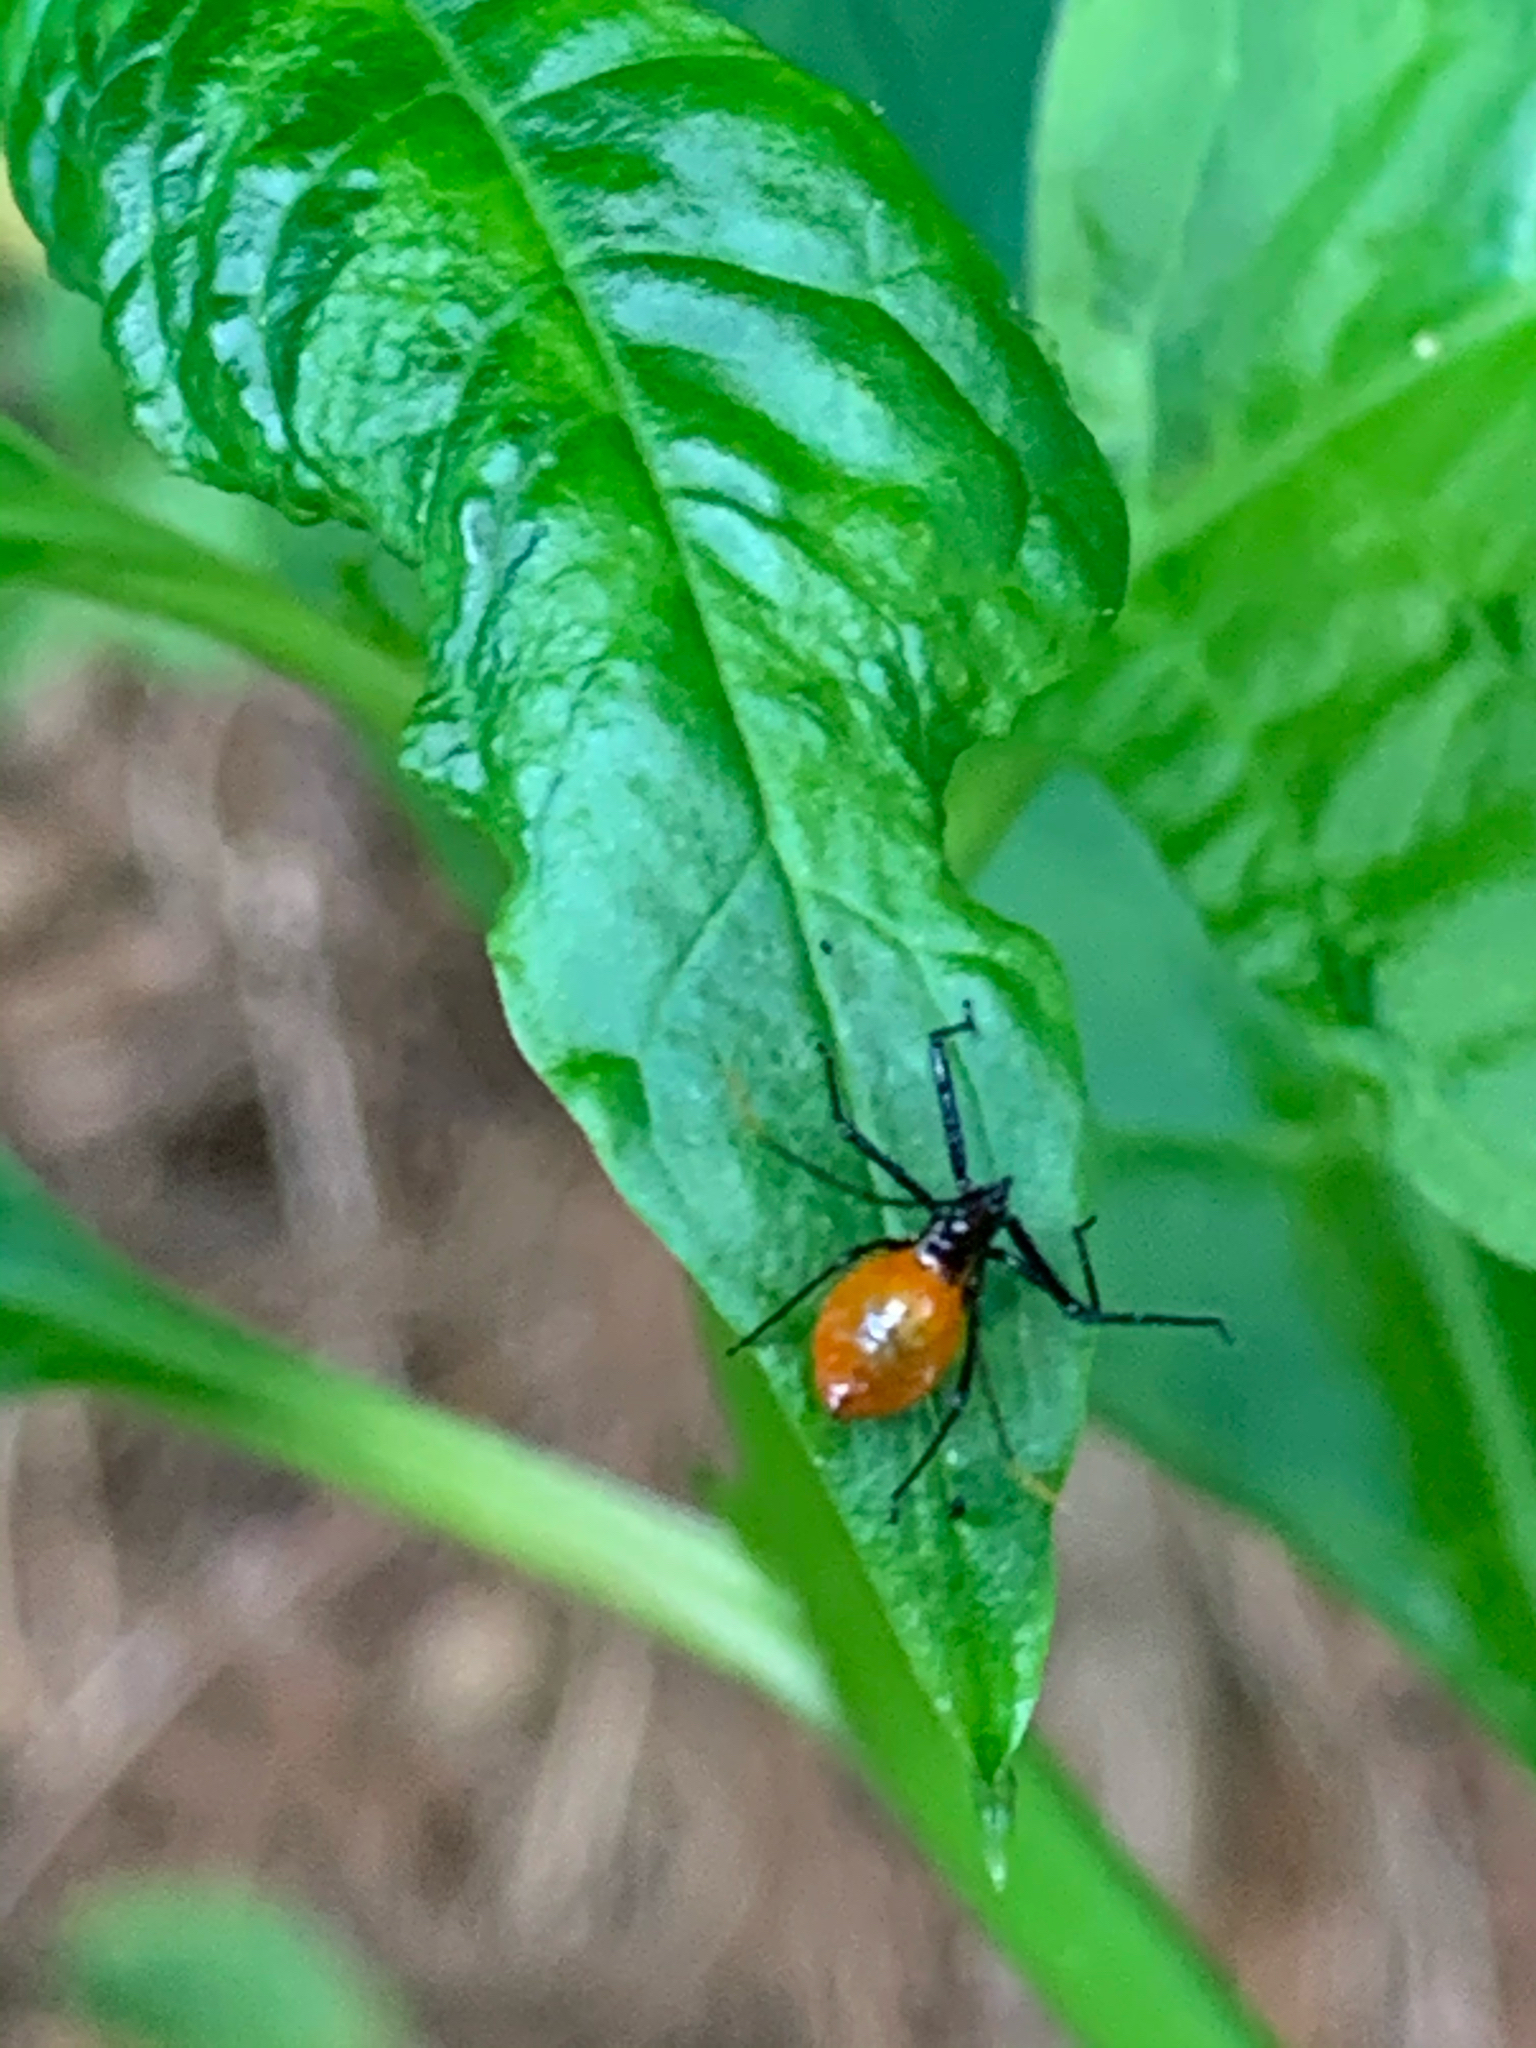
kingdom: Animalia
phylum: Arthropoda
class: Insecta
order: Hemiptera
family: Reduviidae
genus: Arilus
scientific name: Arilus cristatus
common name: North american wheel bug
